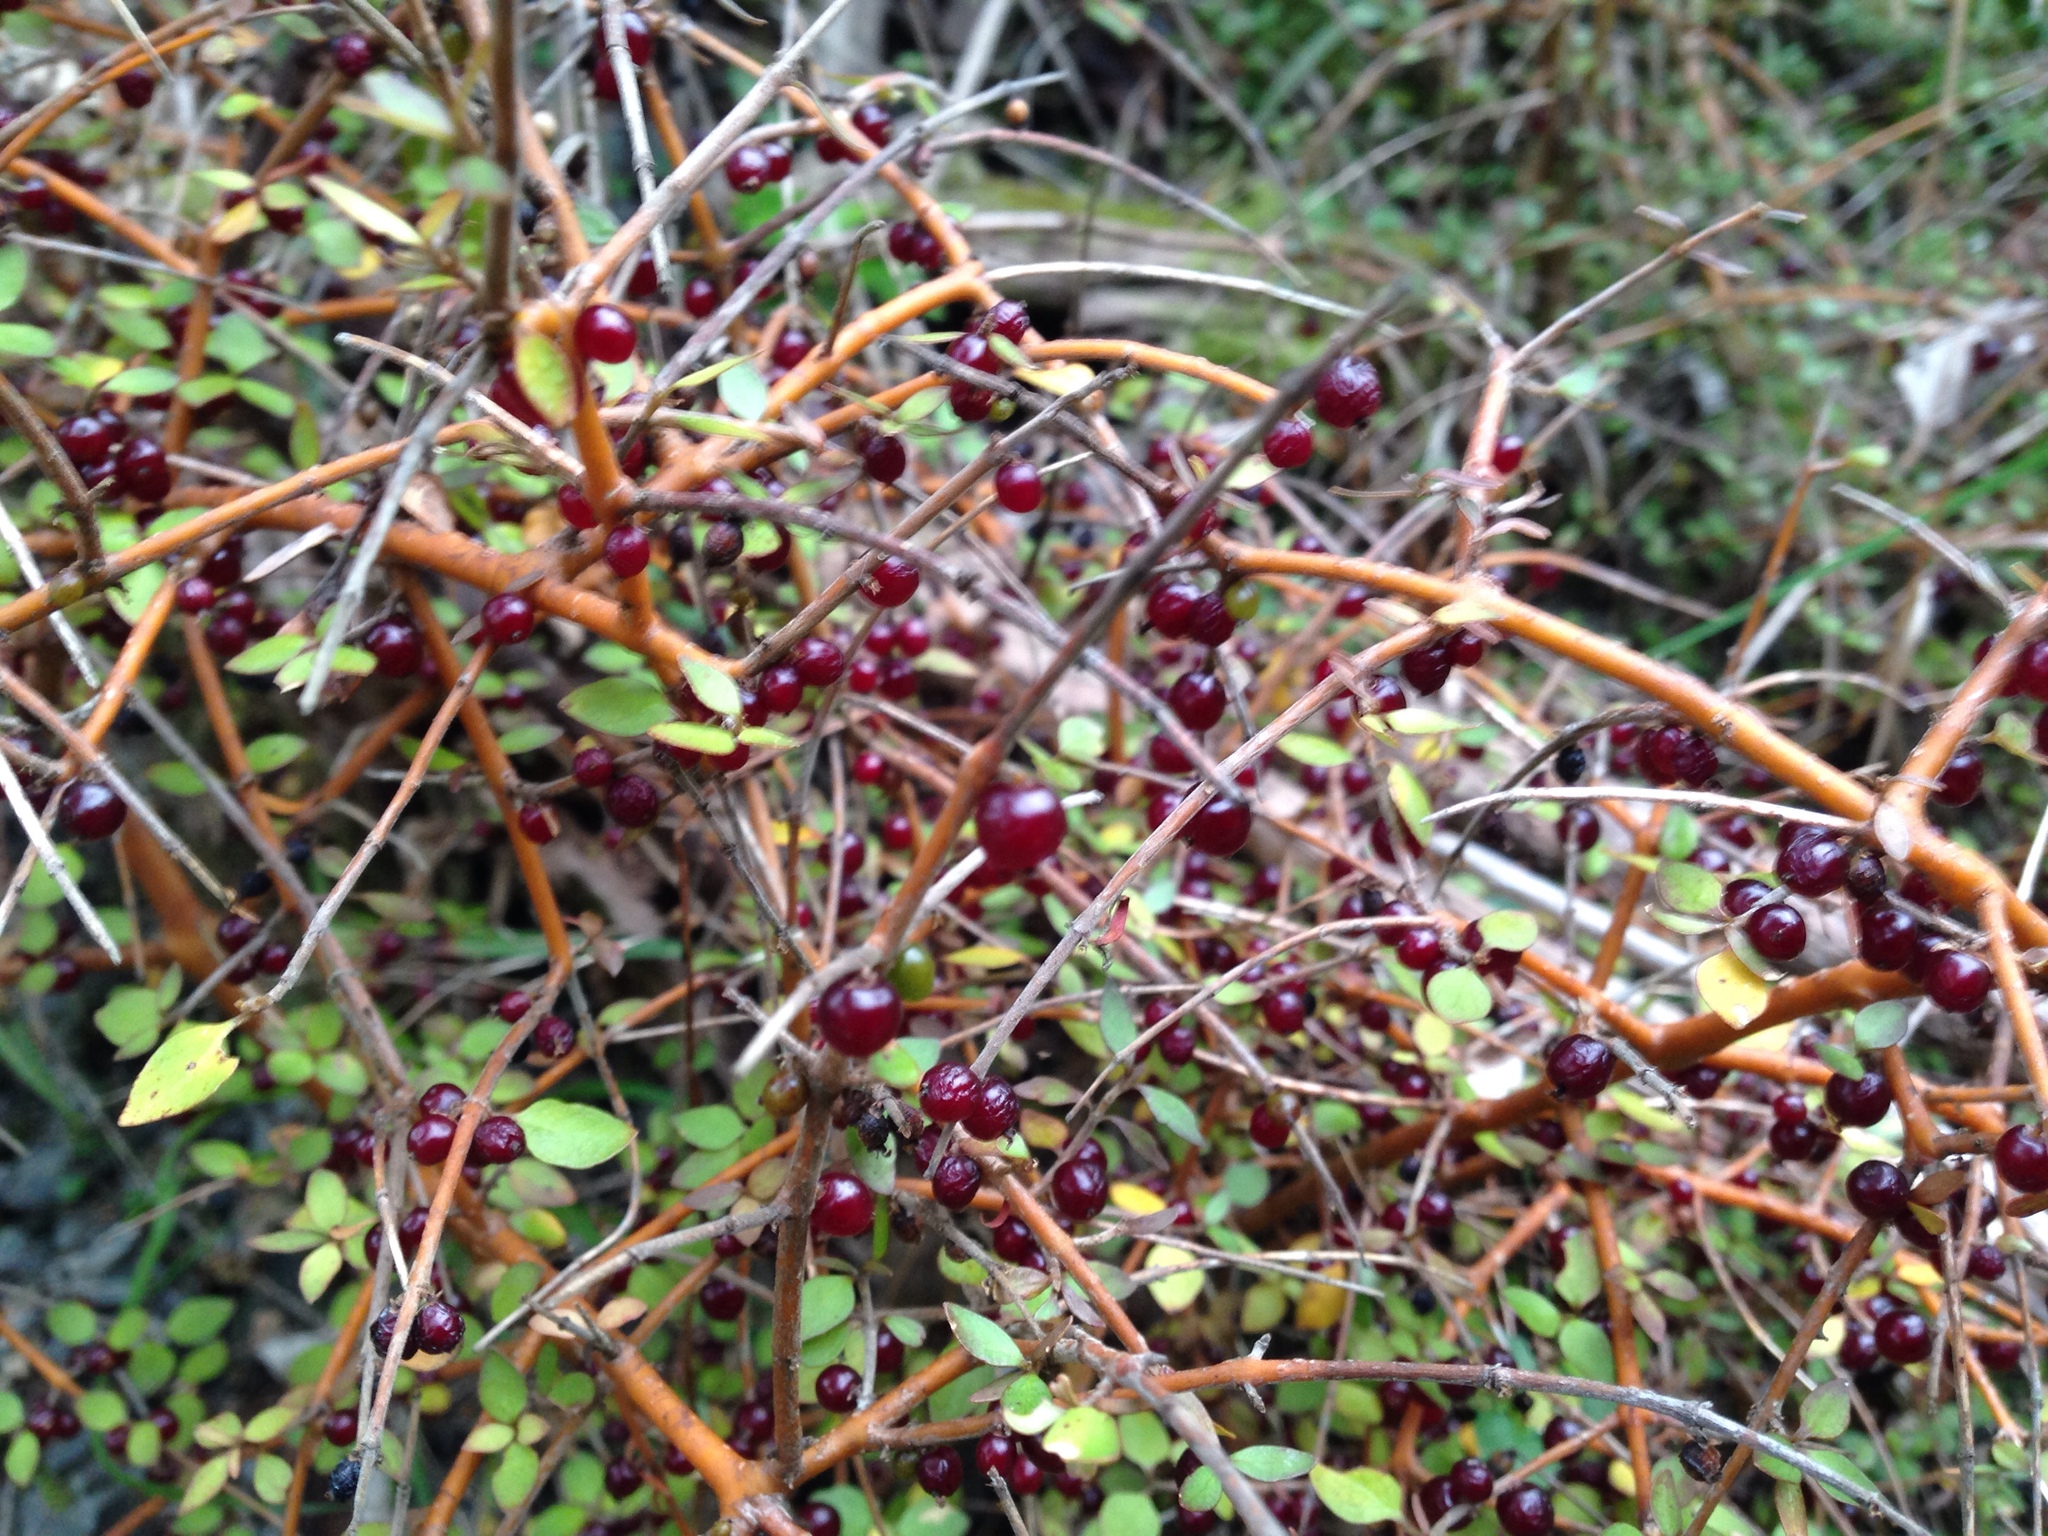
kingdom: Plantae
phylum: Tracheophyta
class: Magnoliopsida
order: Gentianales
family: Rubiaceae
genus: Coprosma
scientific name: Coprosma rhamnoides
